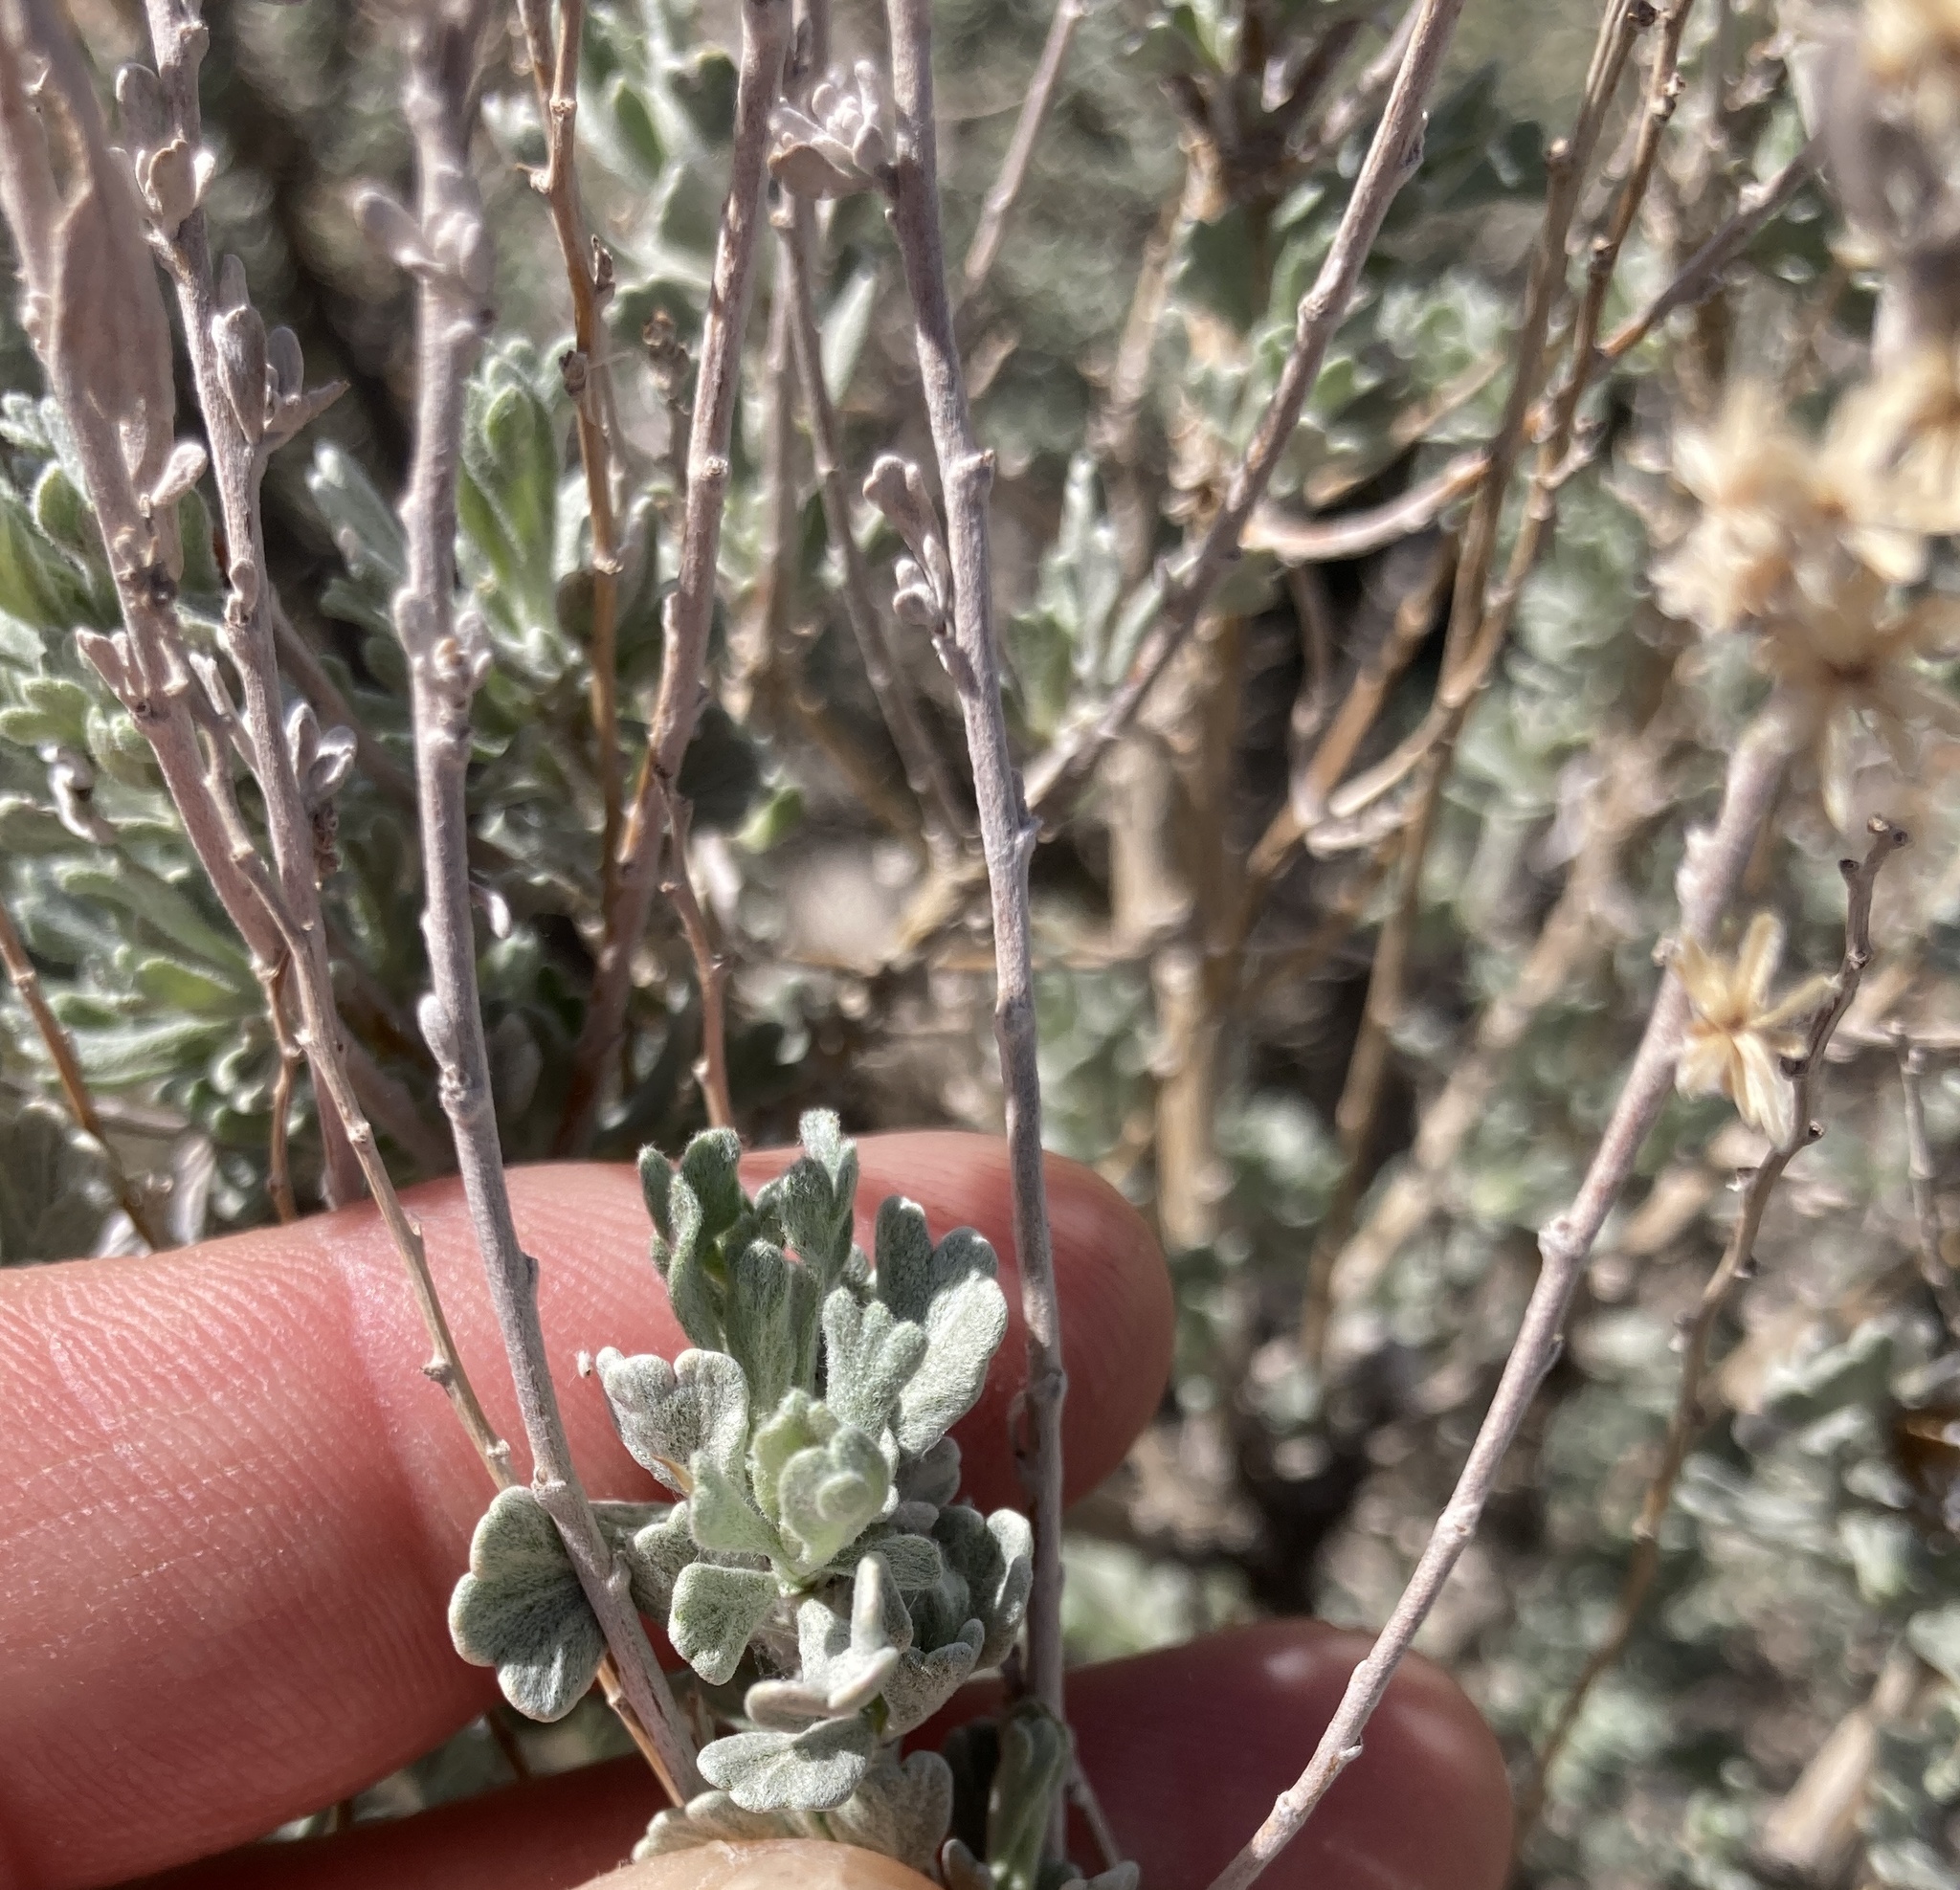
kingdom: Plantae
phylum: Tracheophyta
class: Magnoliopsida
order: Asterales
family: Asteraceae
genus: Artemisia
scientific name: Artemisia tridentata
